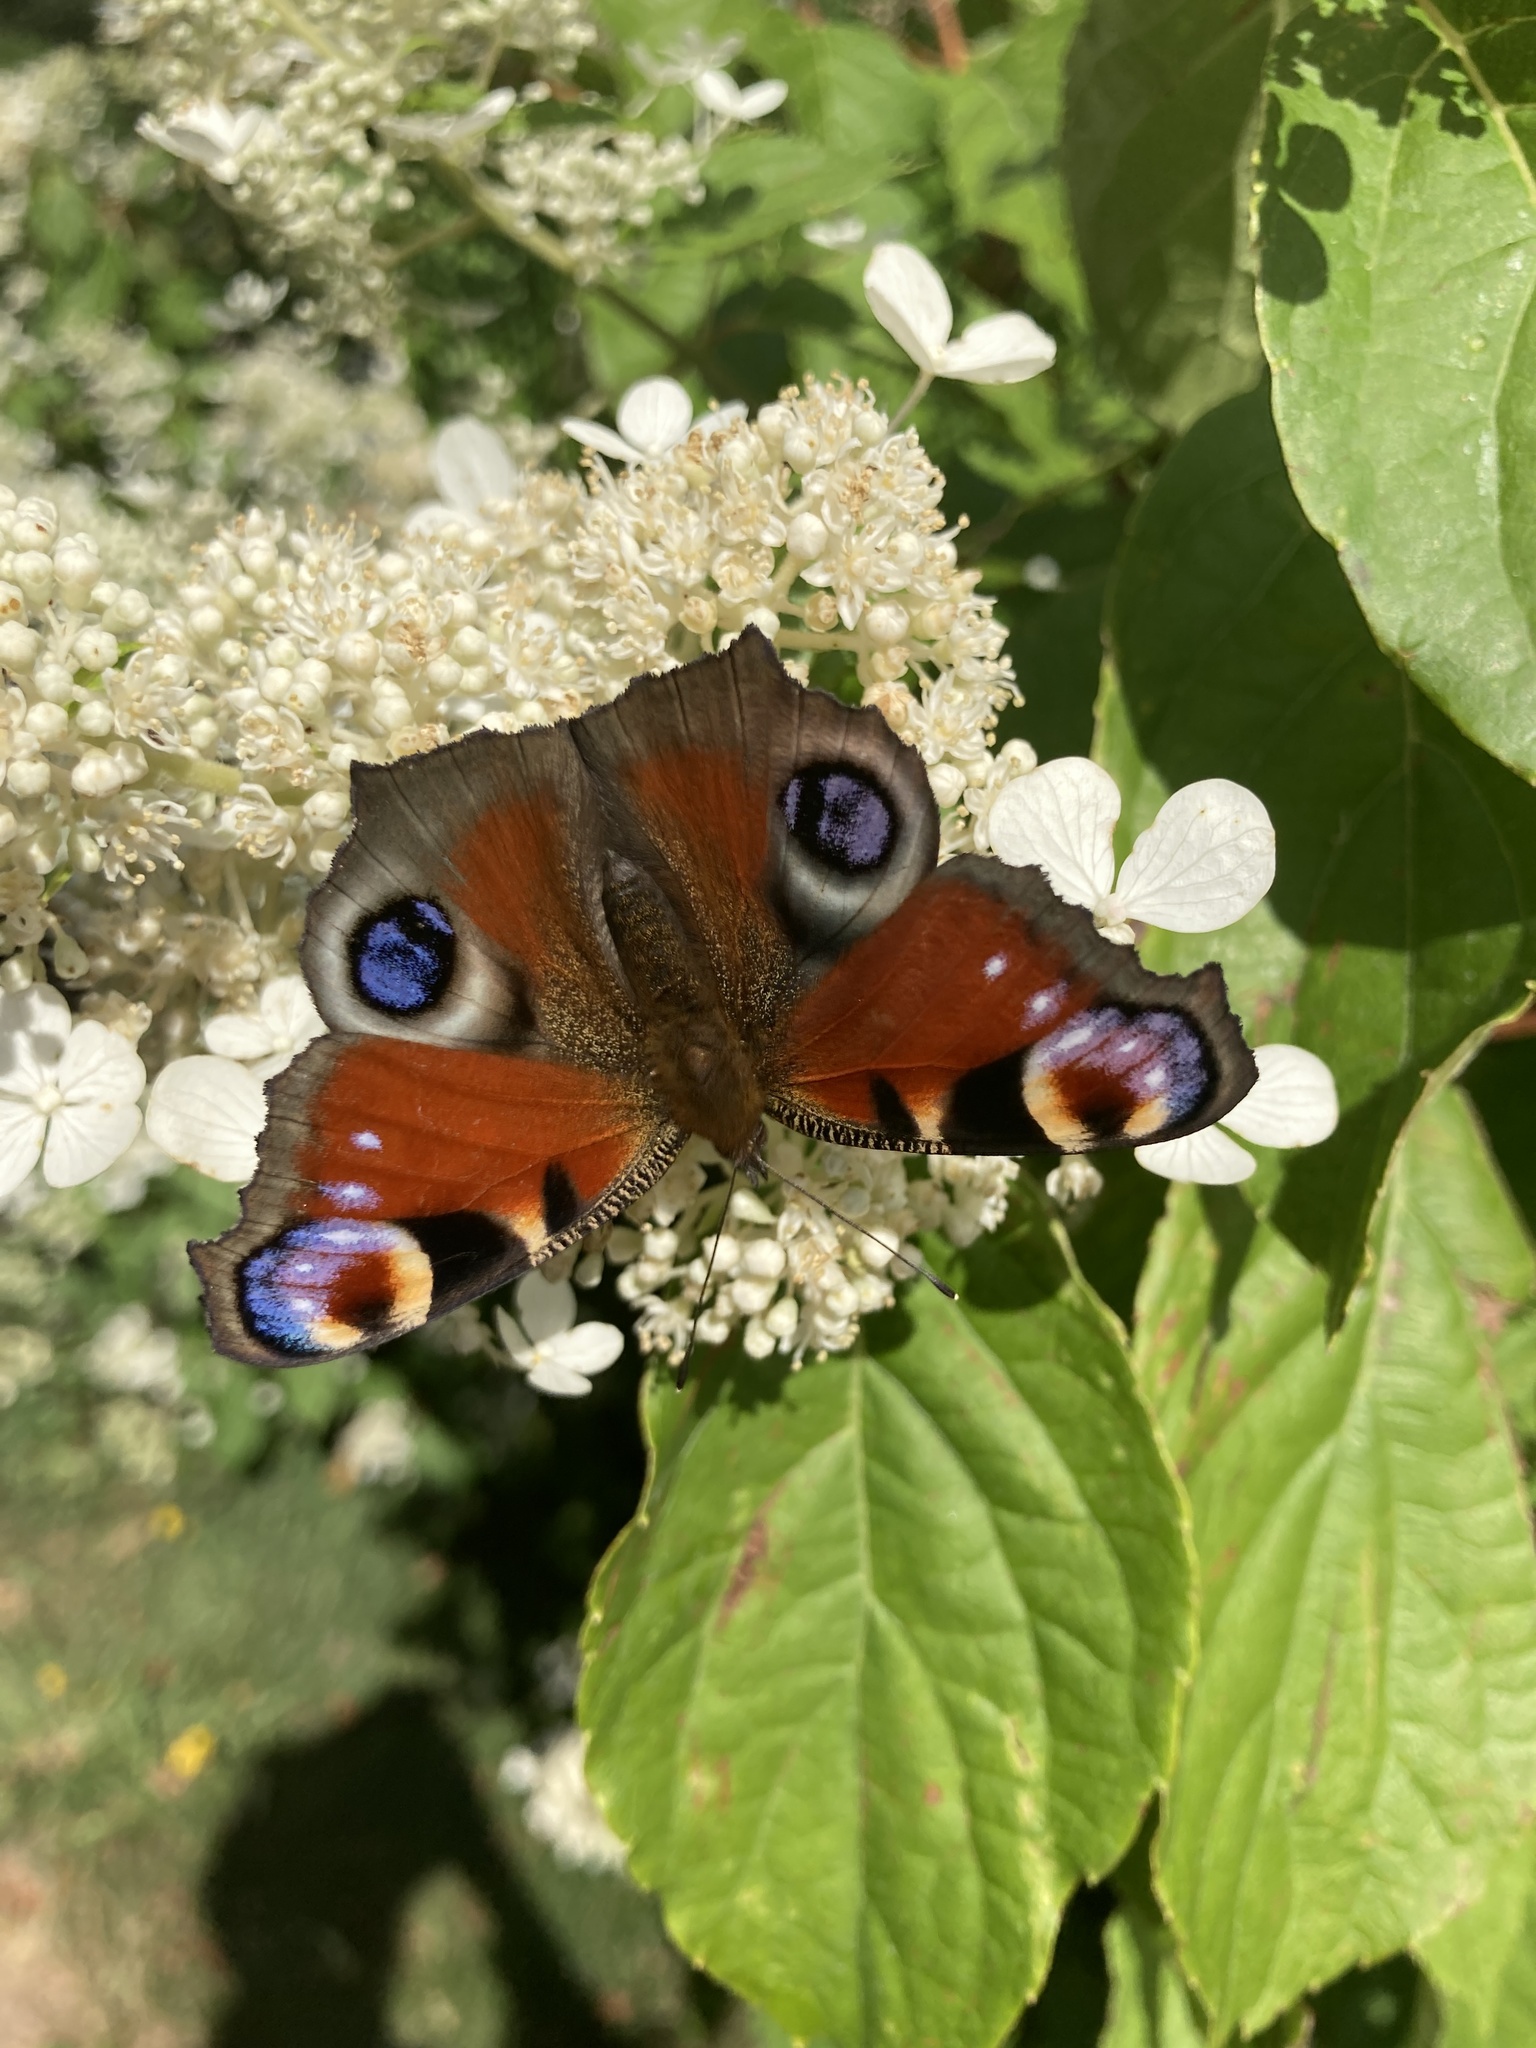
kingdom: Animalia
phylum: Arthropoda
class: Insecta
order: Lepidoptera
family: Nymphalidae
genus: Aglais
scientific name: Aglais io
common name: Peacock
